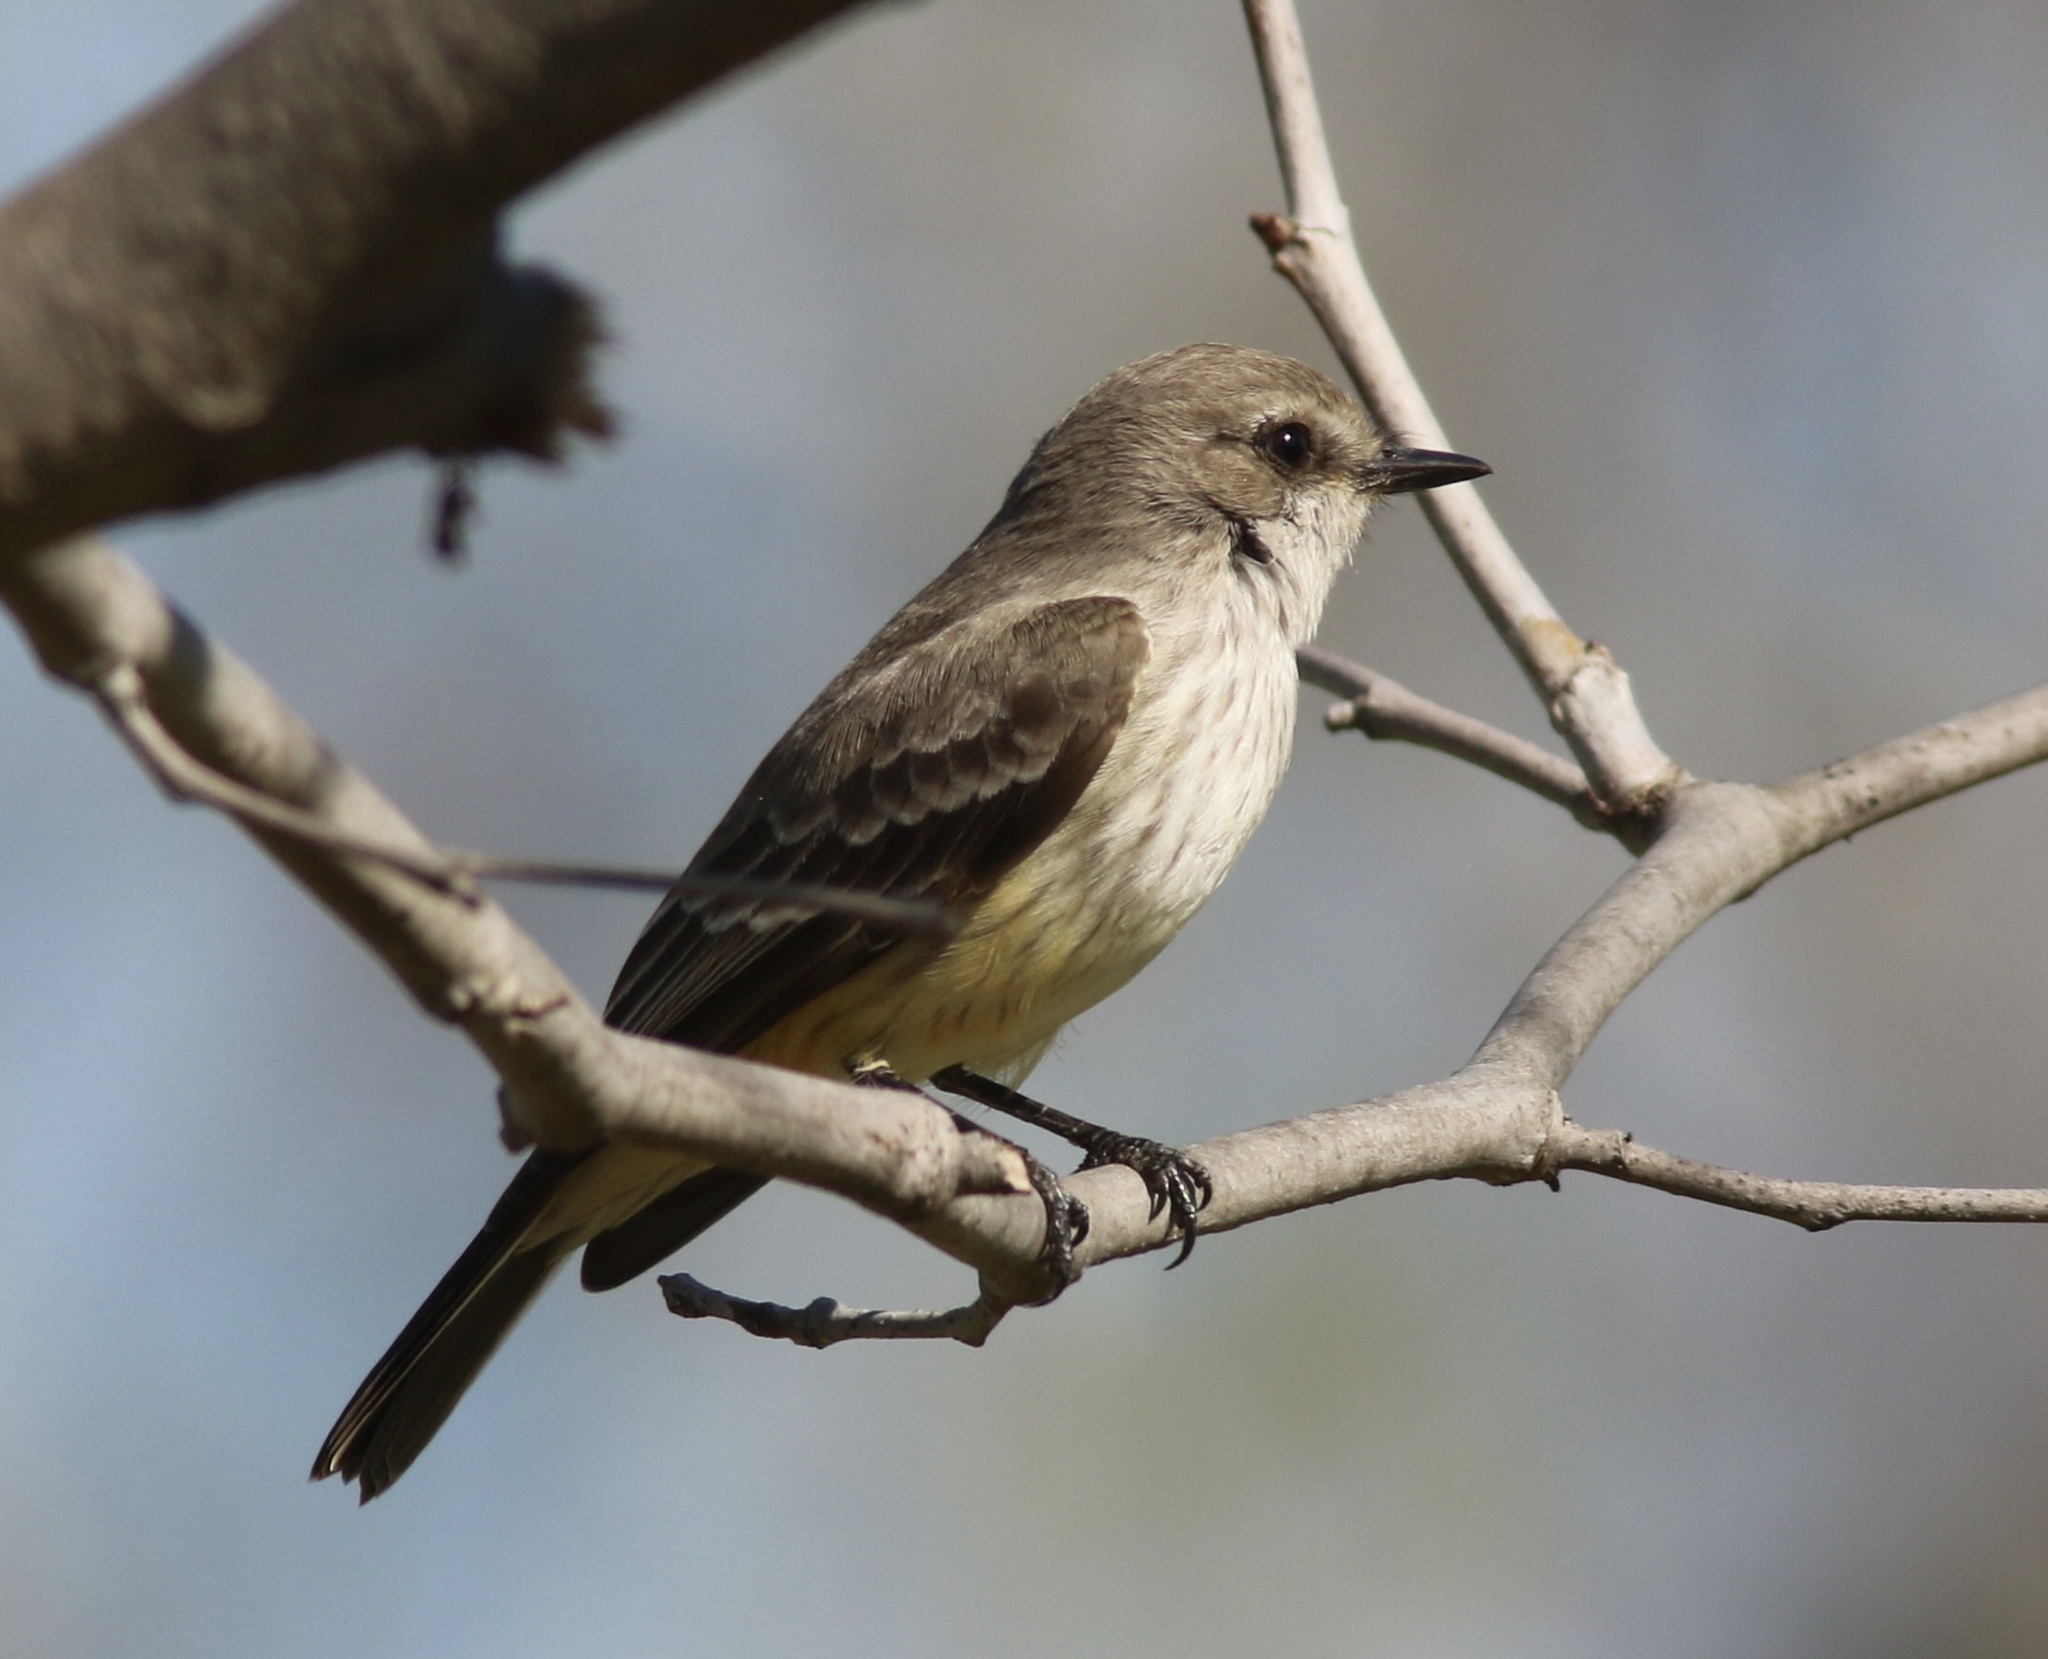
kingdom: Animalia
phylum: Chordata
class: Aves
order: Passeriformes
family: Tyrannidae
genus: Pyrocephalus
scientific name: Pyrocephalus rubinus
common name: Vermilion flycatcher
